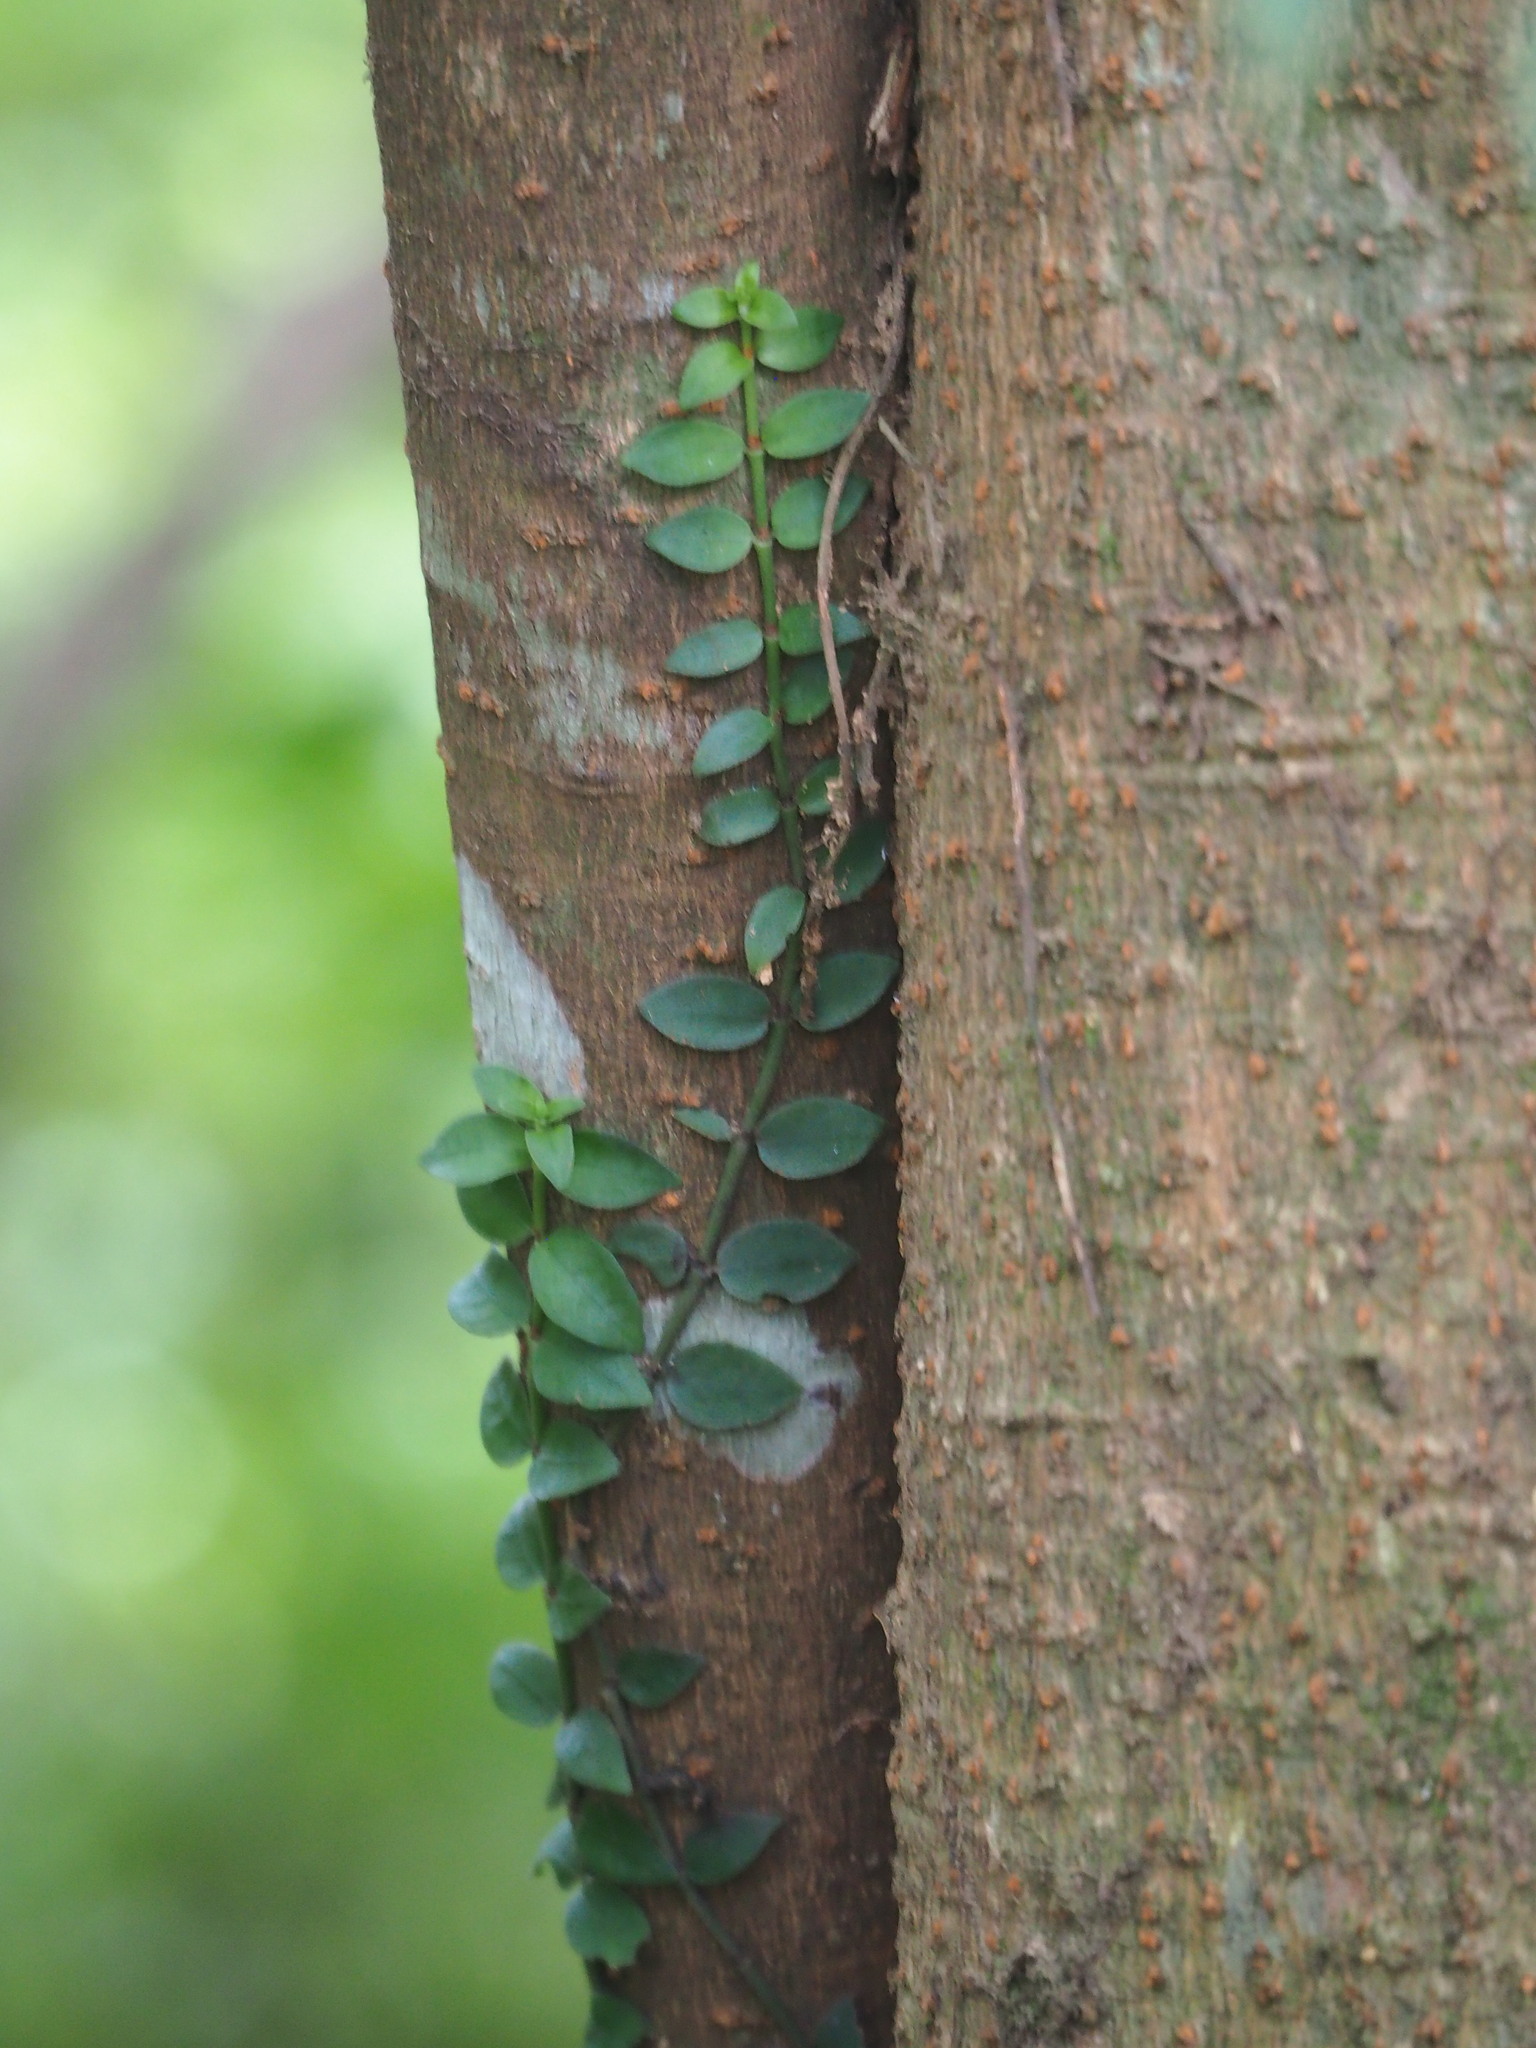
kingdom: Plantae
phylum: Tracheophyta
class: Magnoliopsida
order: Gentianales
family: Rubiaceae
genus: Psychotria
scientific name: Psychotria serpens
